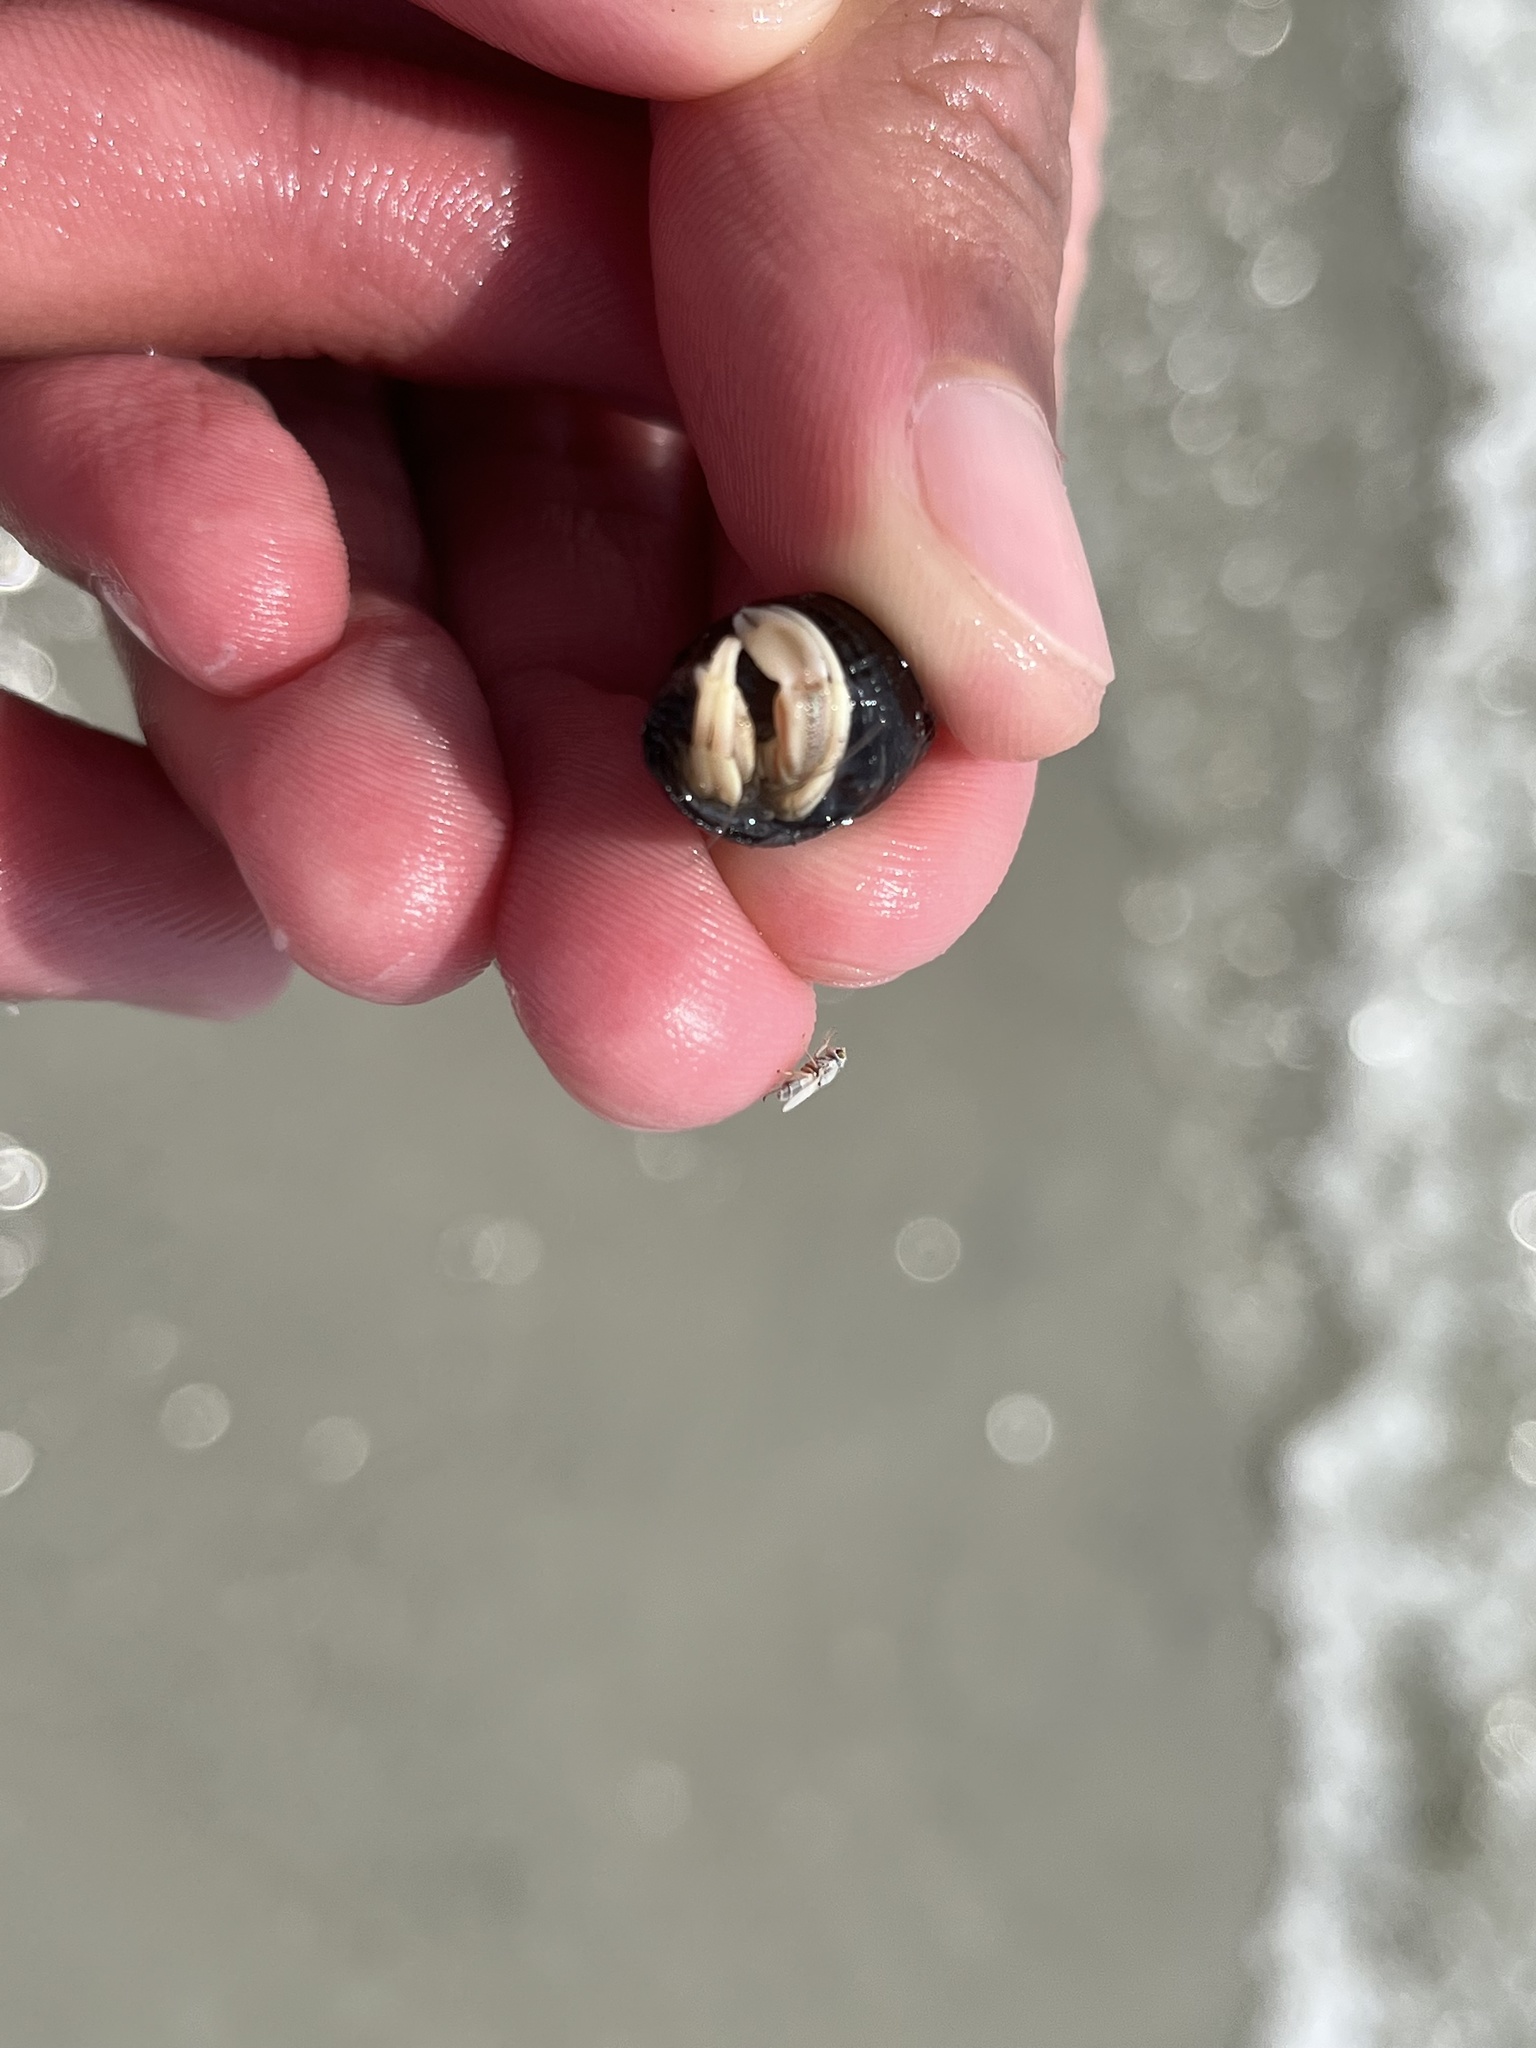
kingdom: Animalia
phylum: Arthropoda
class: Malacostraca
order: Decapoda
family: Paguridae
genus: Pagurus
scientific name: Pagurus longicarpus
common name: Long-armed hermit crab
